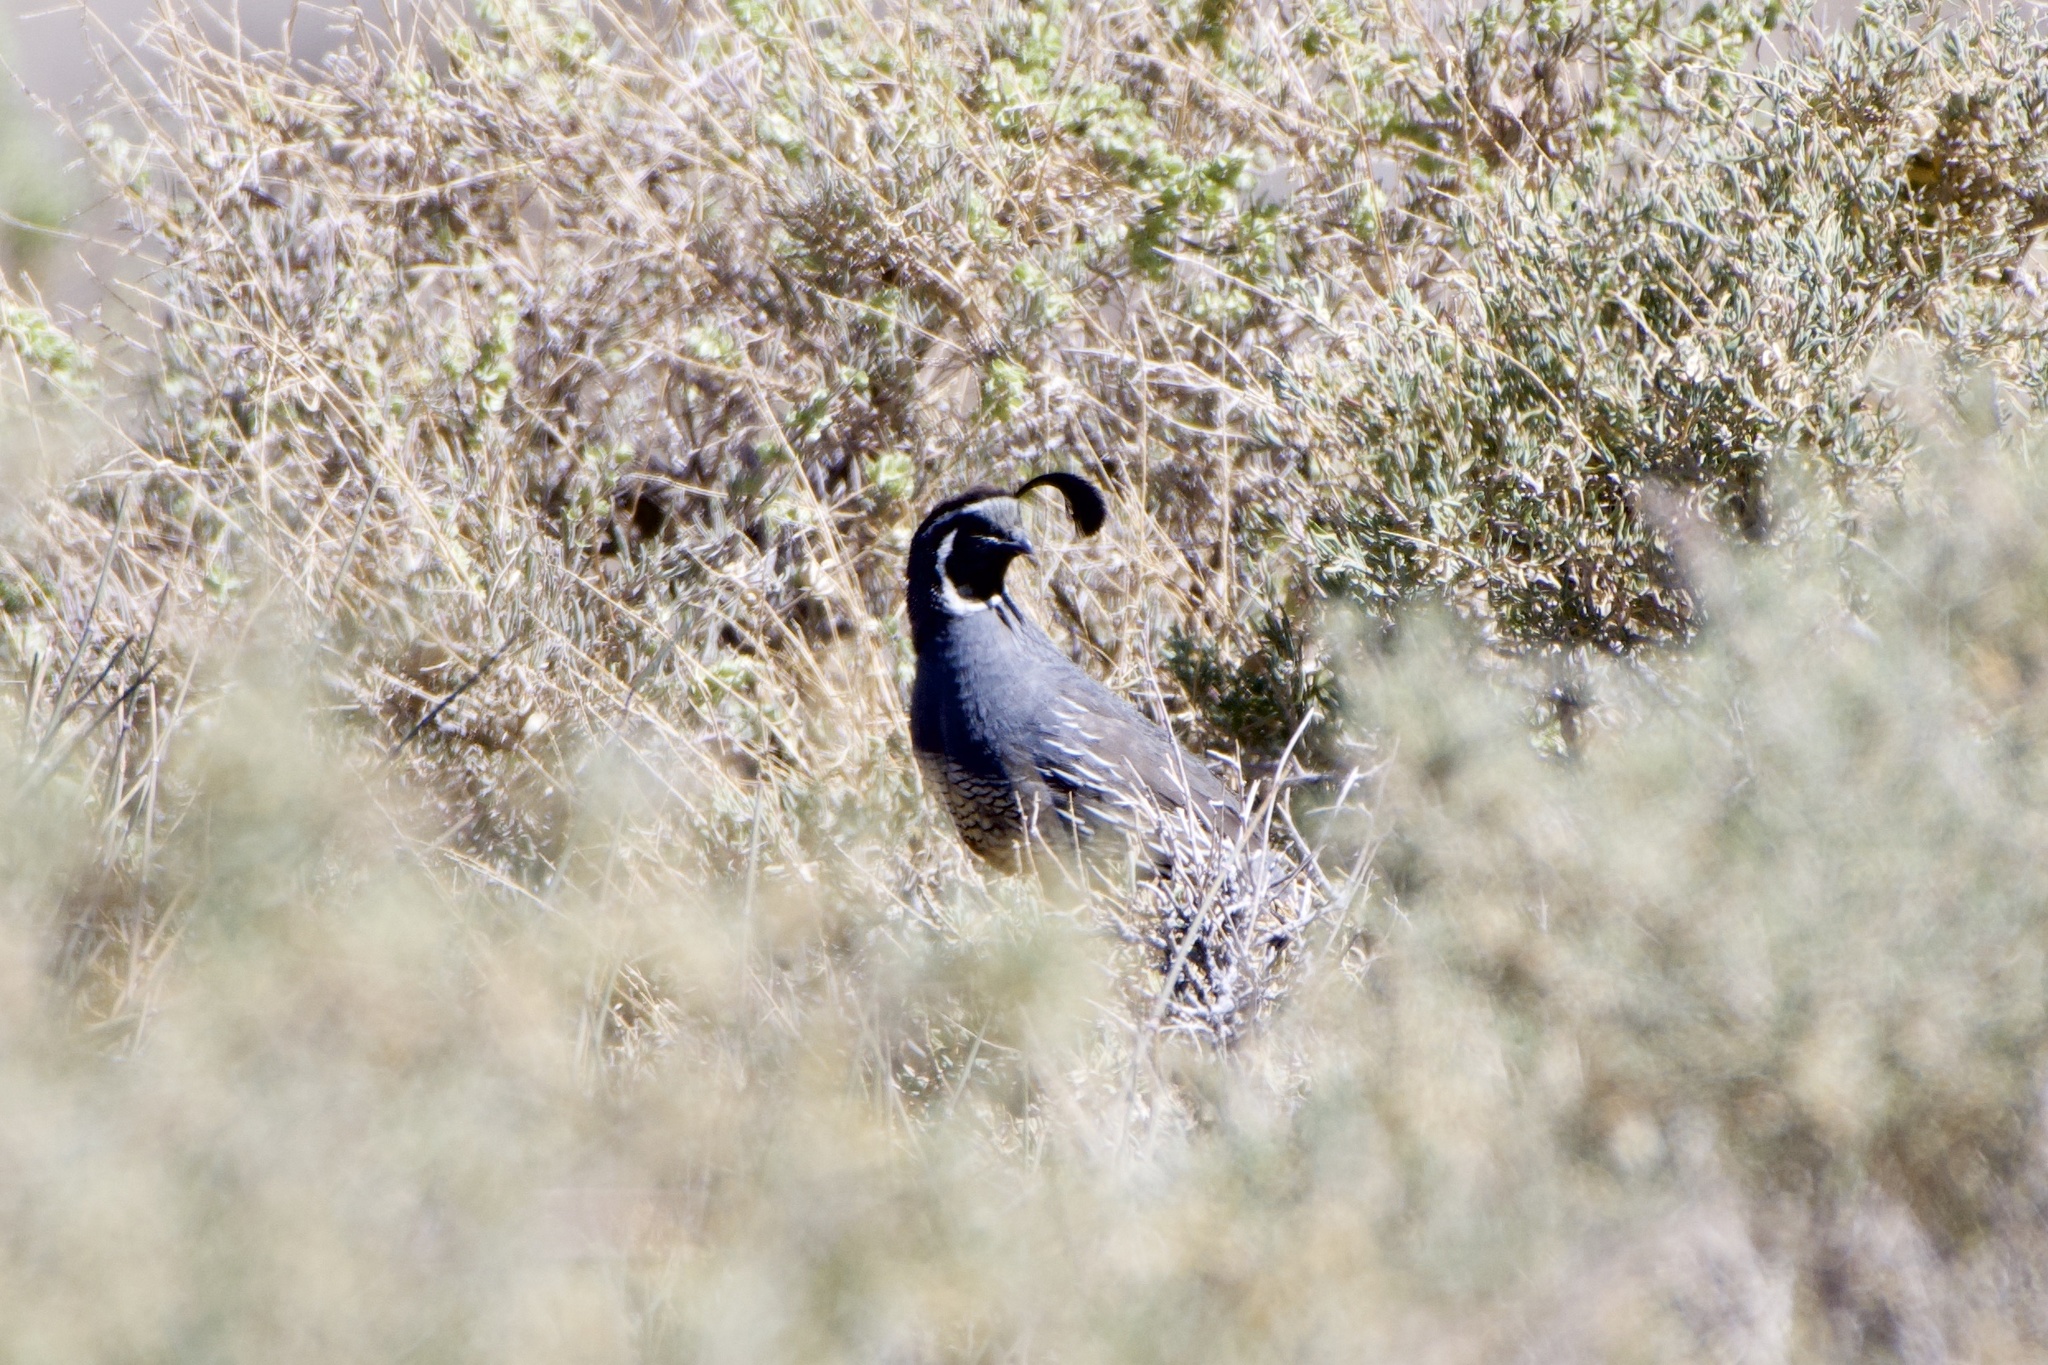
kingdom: Animalia
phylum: Chordata
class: Aves
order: Galliformes
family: Odontophoridae
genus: Callipepla
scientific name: Callipepla californica
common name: California quail
